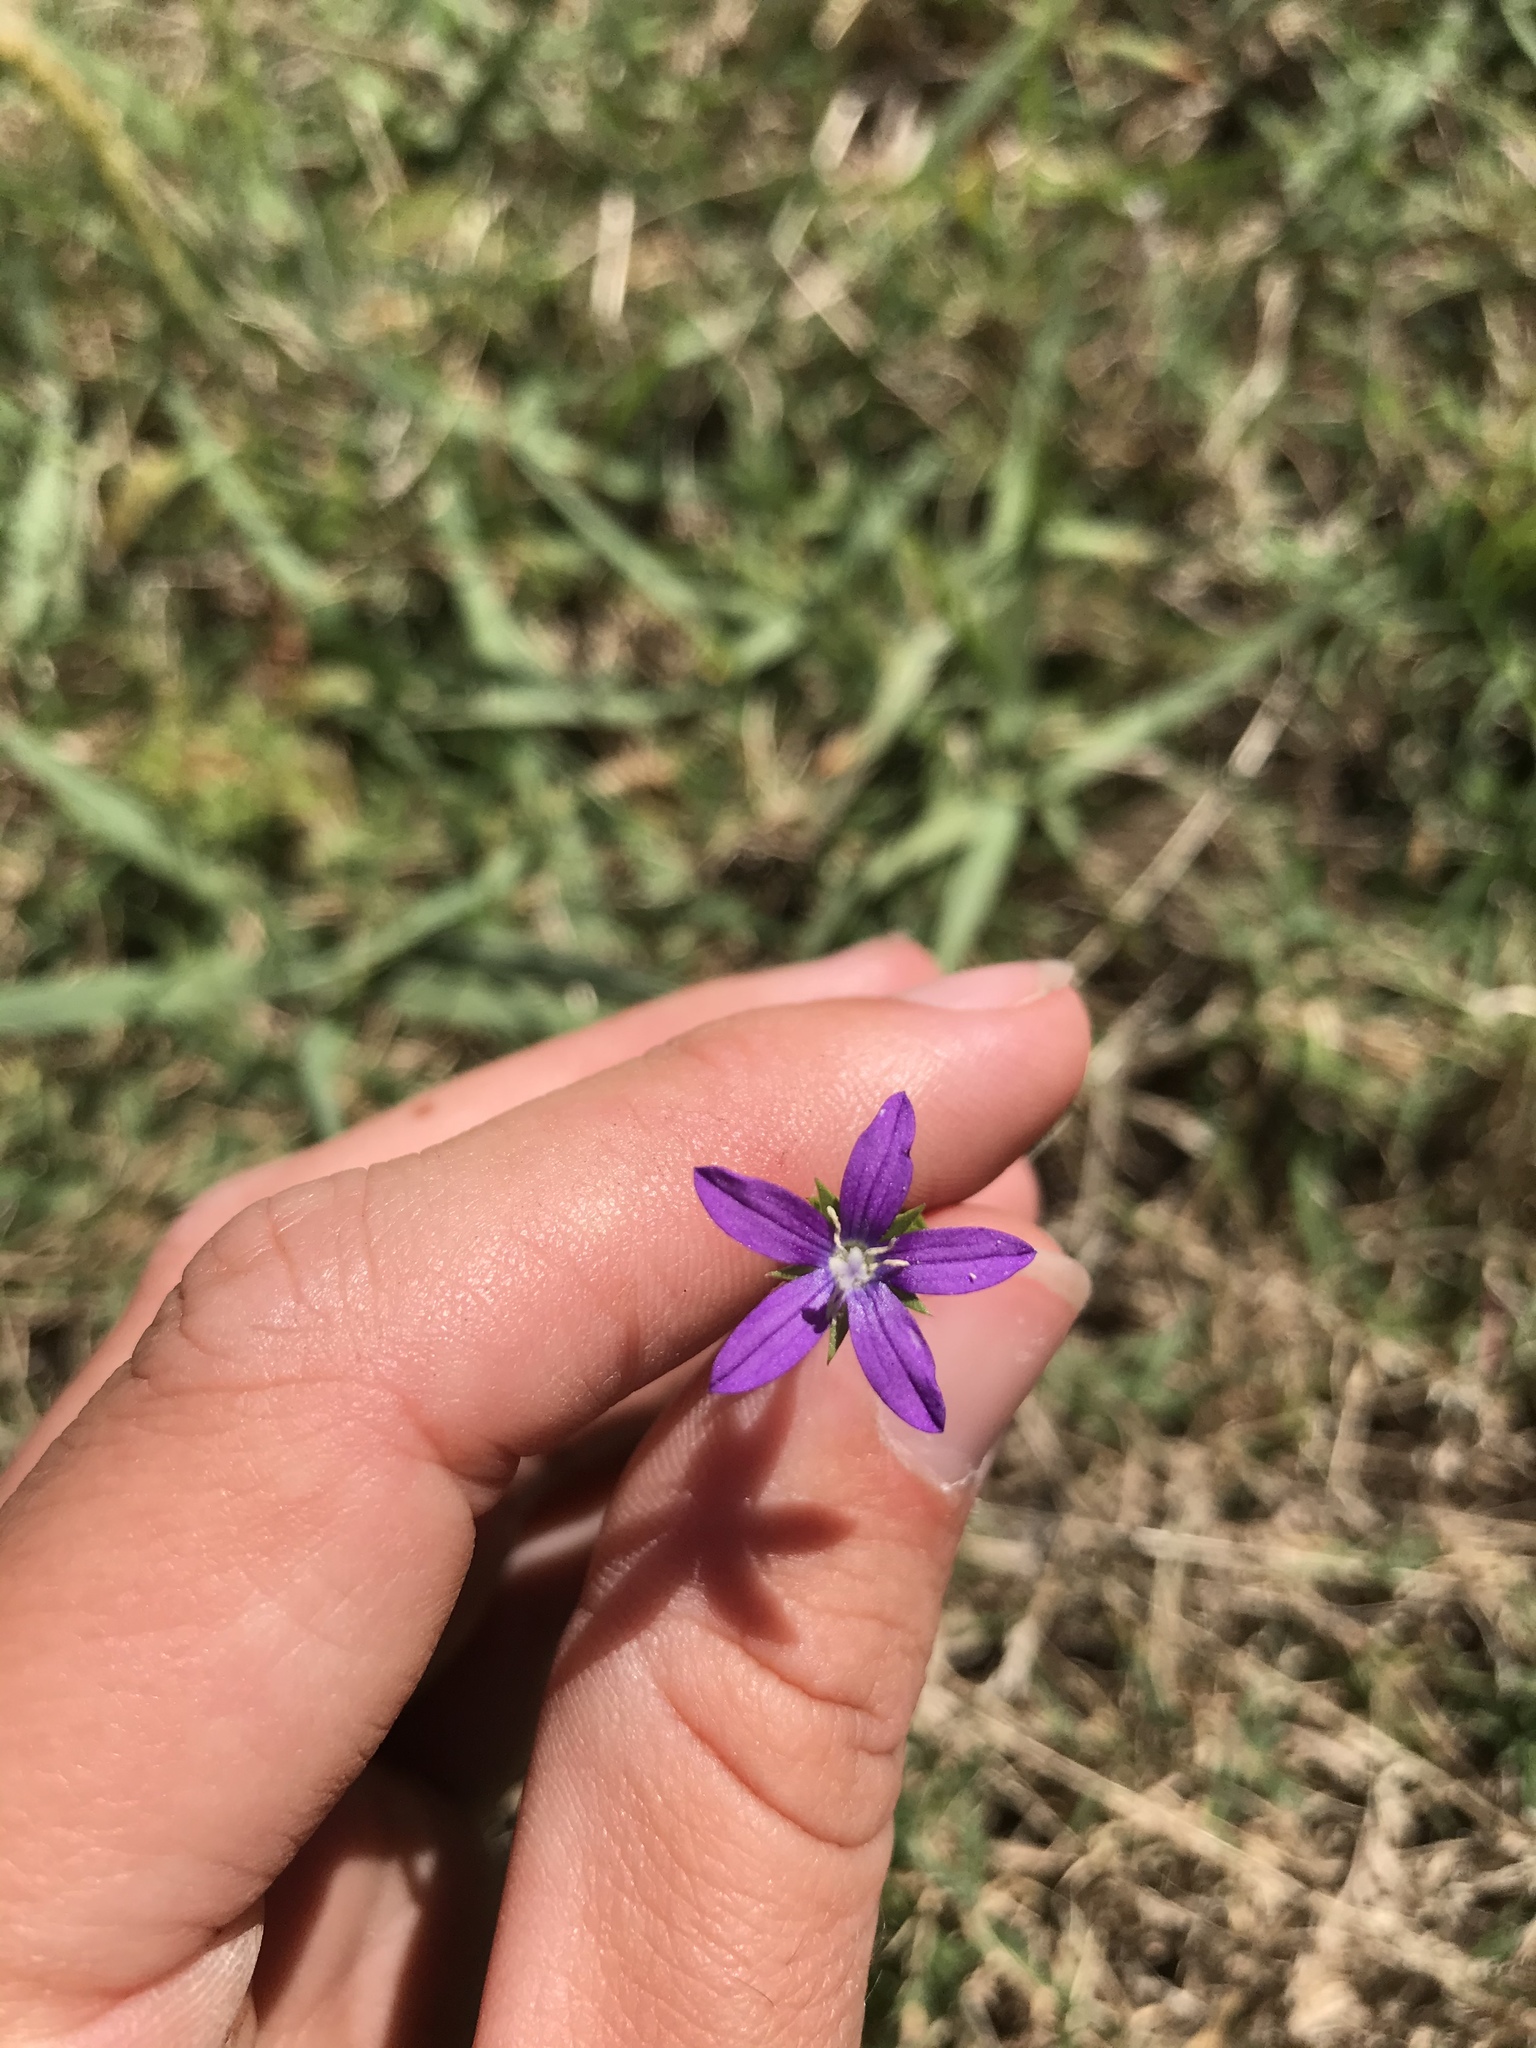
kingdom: Plantae
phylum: Tracheophyta
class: Magnoliopsida
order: Asterales
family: Campanulaceae
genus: Triodanis
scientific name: Triodanis biflora
